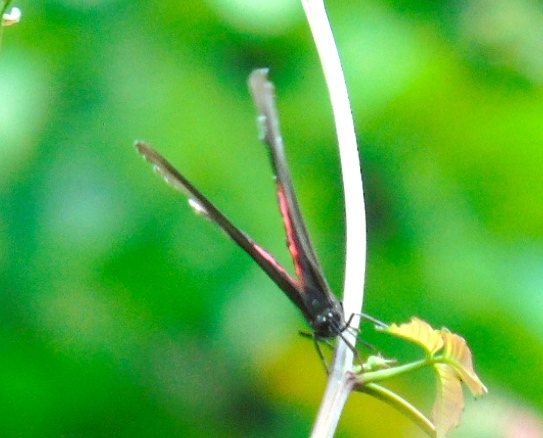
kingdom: Animalia
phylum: Arthropoda
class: Insecta
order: Lepidoptera
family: Nymphalidae
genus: Biblis
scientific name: Biblis aganisa
